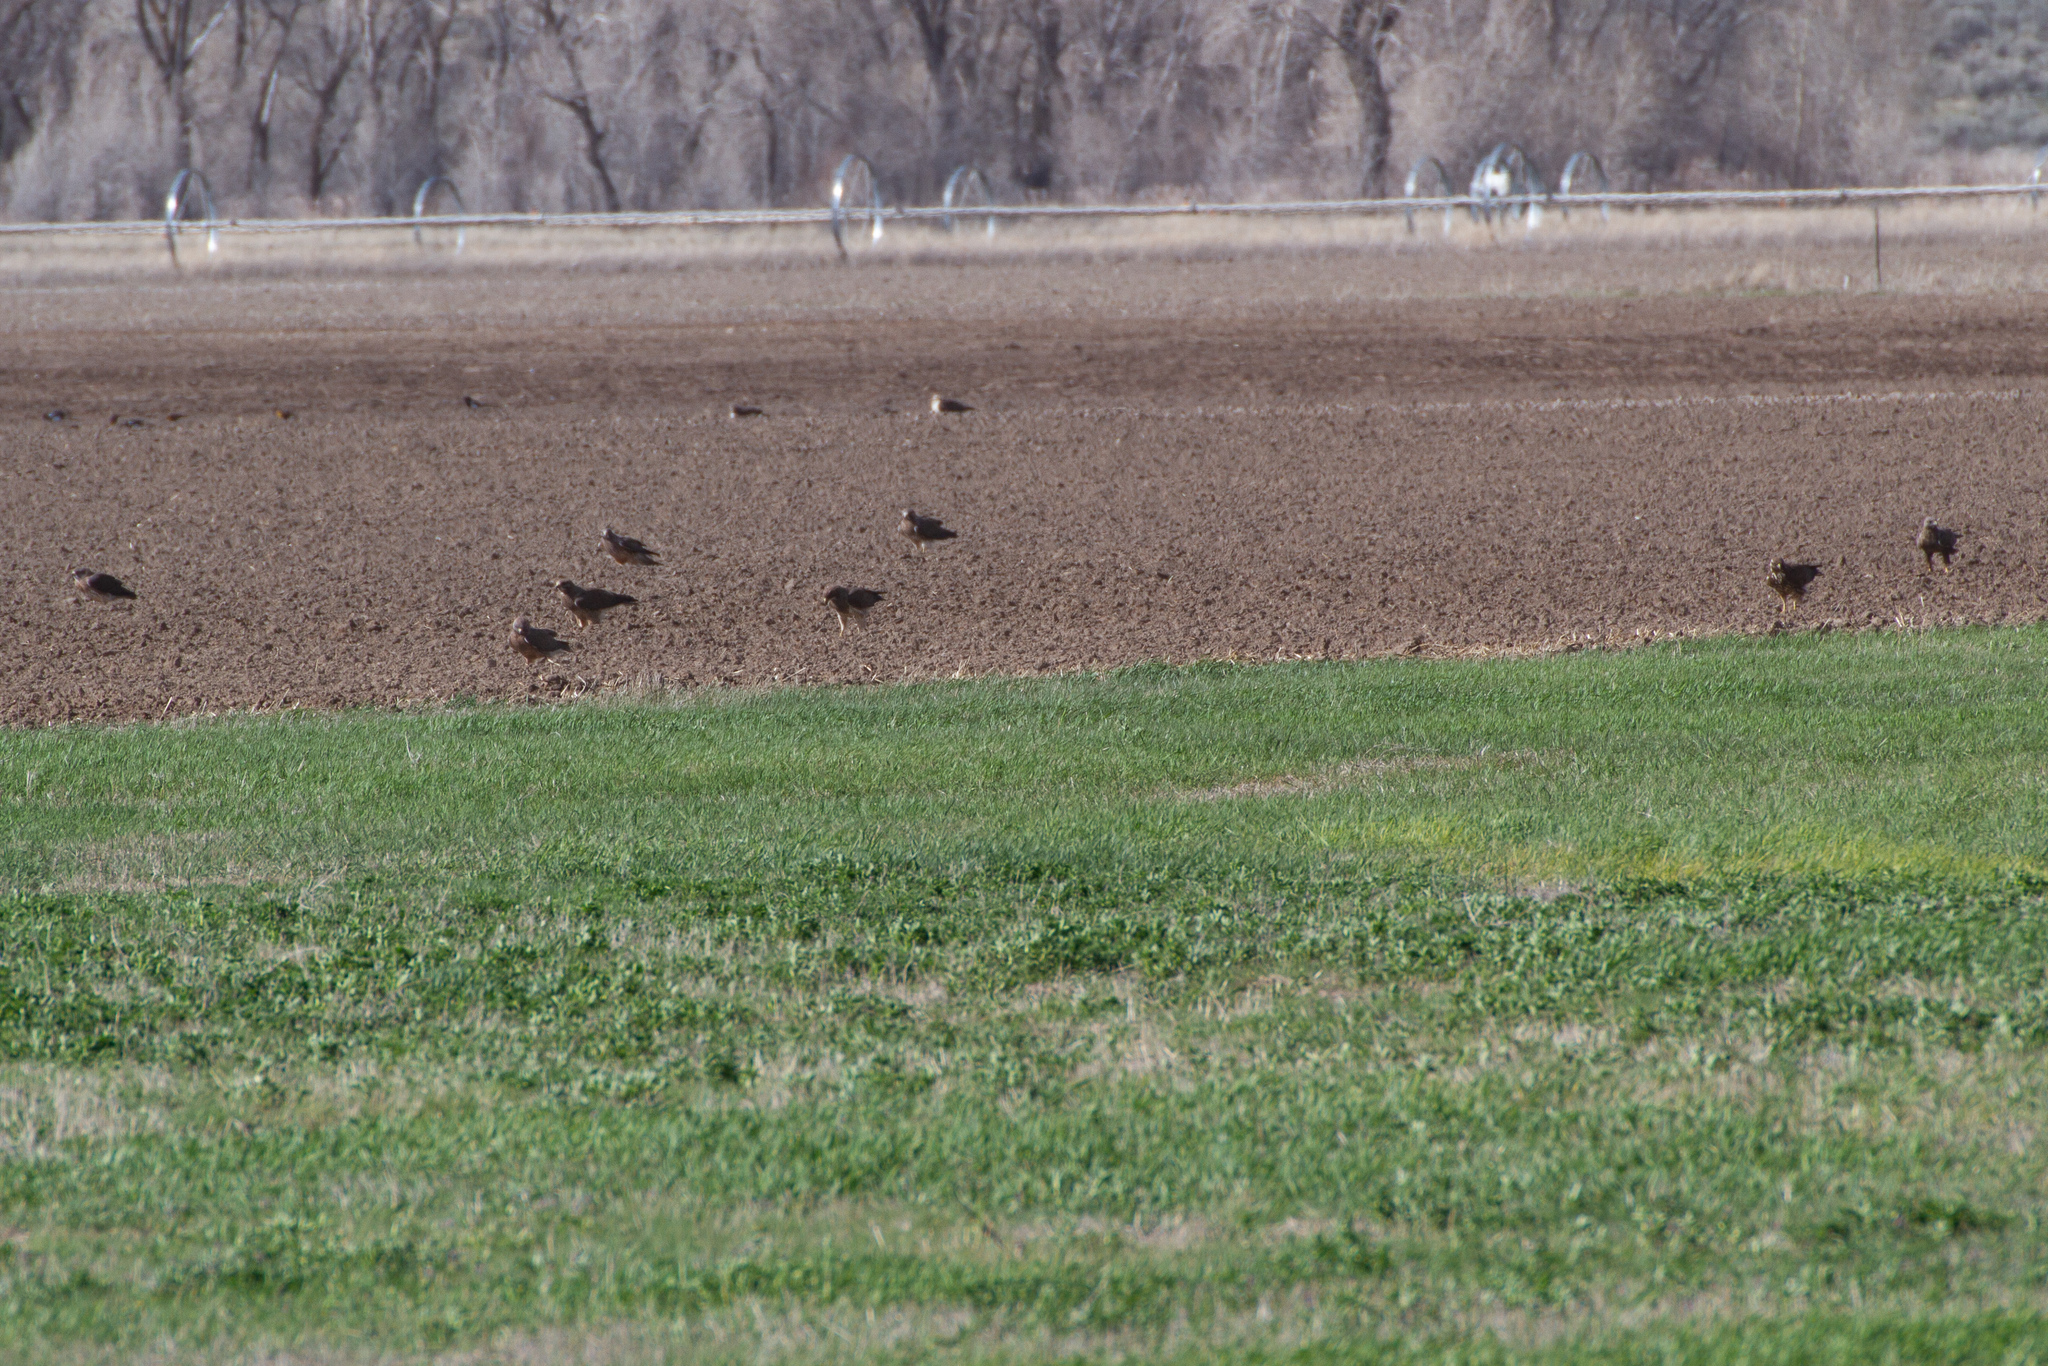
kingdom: Animalia
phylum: Chordata
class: Aves
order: Accipitriformes
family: Accipitridae
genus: Buteo
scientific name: Buteo swainsoni
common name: Swainson's hawk
